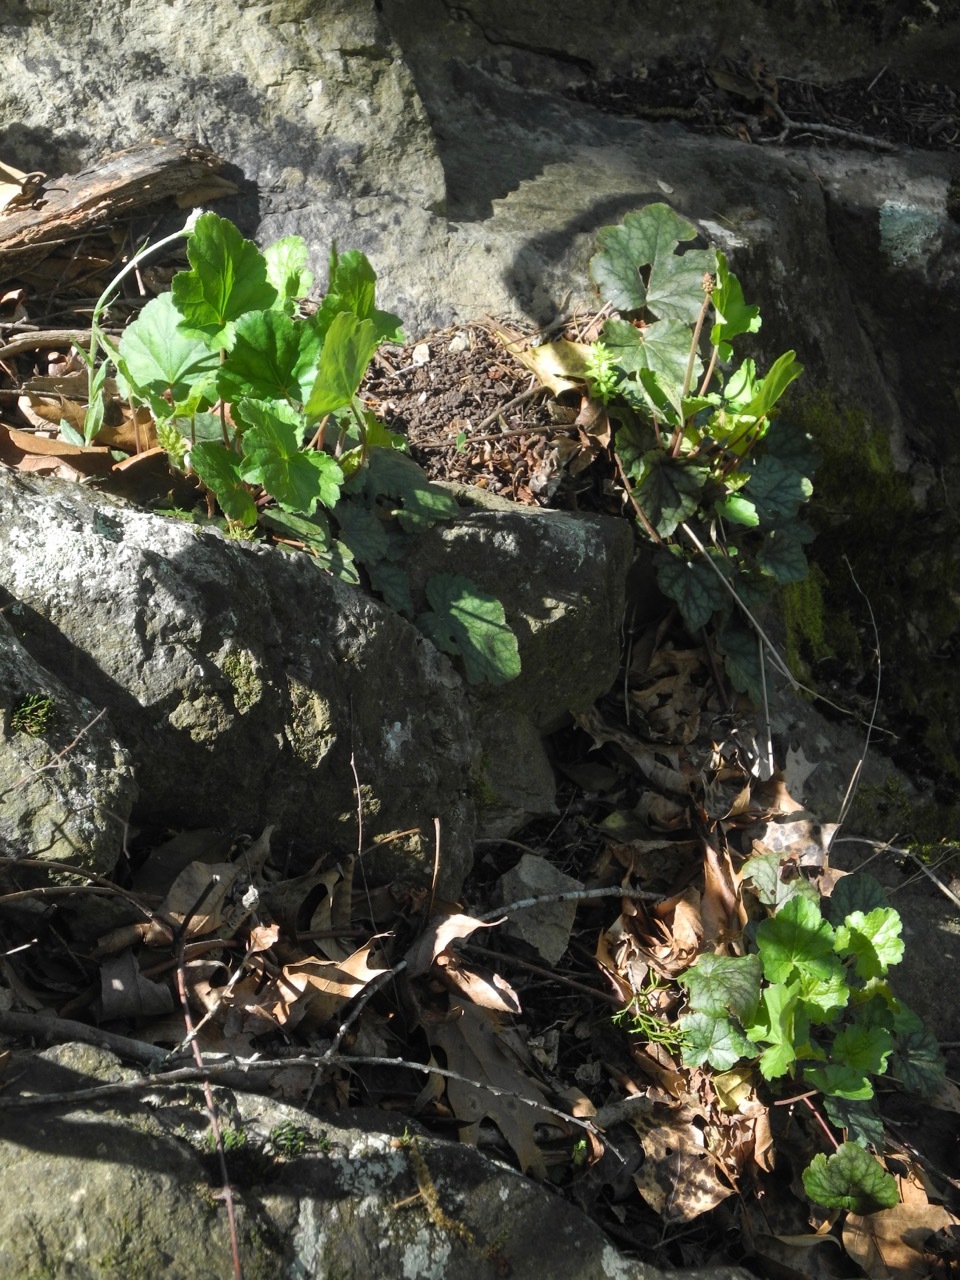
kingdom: Plantae
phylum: Tracheophyta
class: Magnoliopsida
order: Saxifragales
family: Saxifragaceae
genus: Heuchera
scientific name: Heuchera americana
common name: Alumroot
